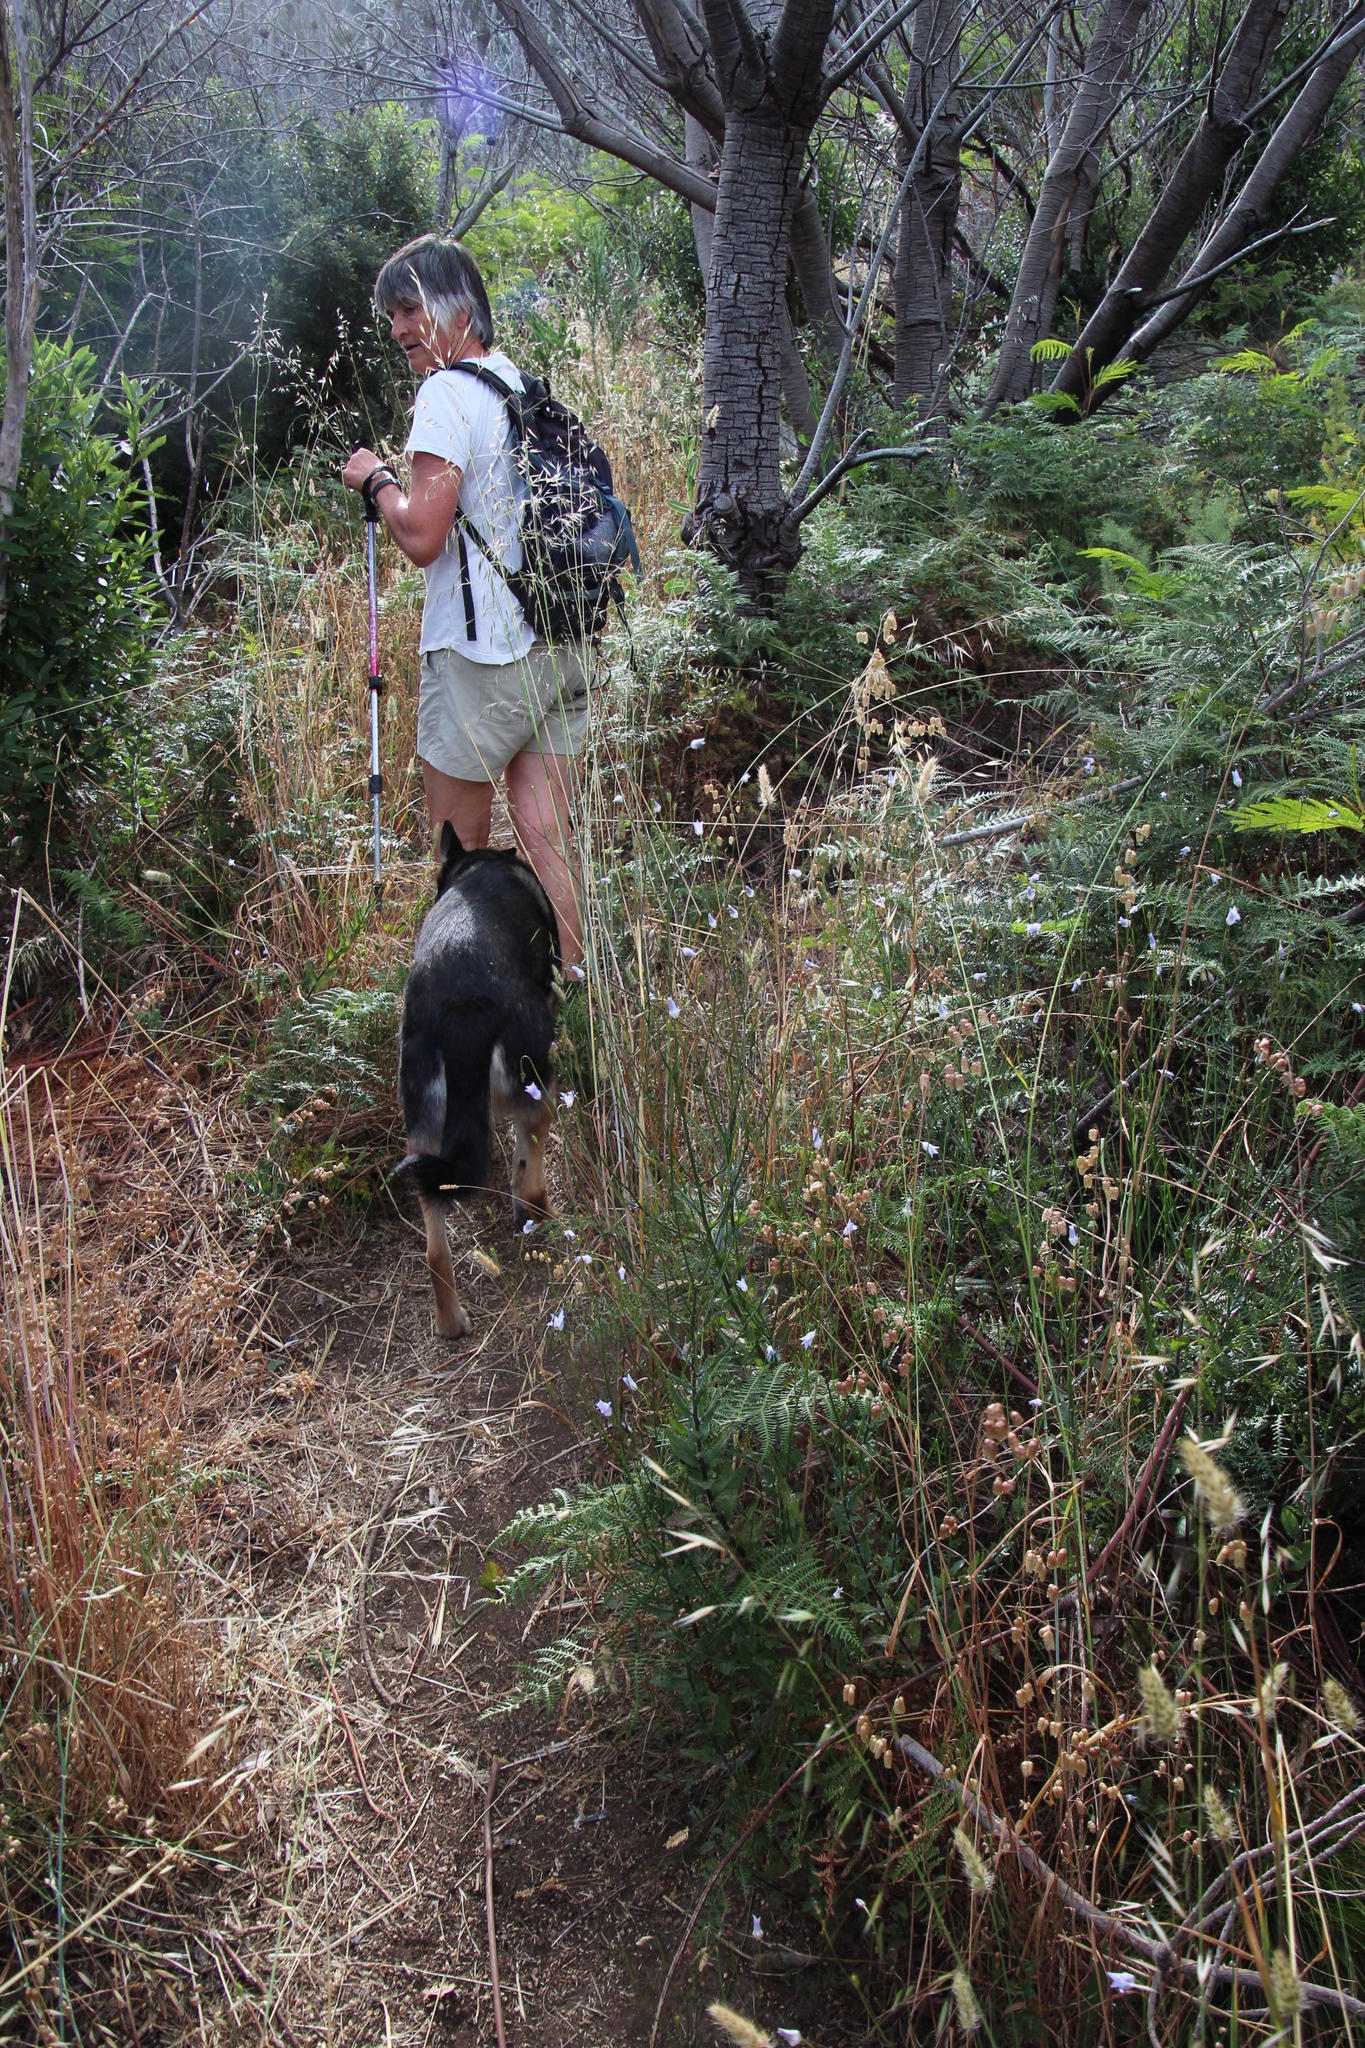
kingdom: Plantae
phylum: Tracheophyta
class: Magnoliopsida
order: Asterales
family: Campanulaceae
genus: Wahlenbergia
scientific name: Wahlenbergia obovata
